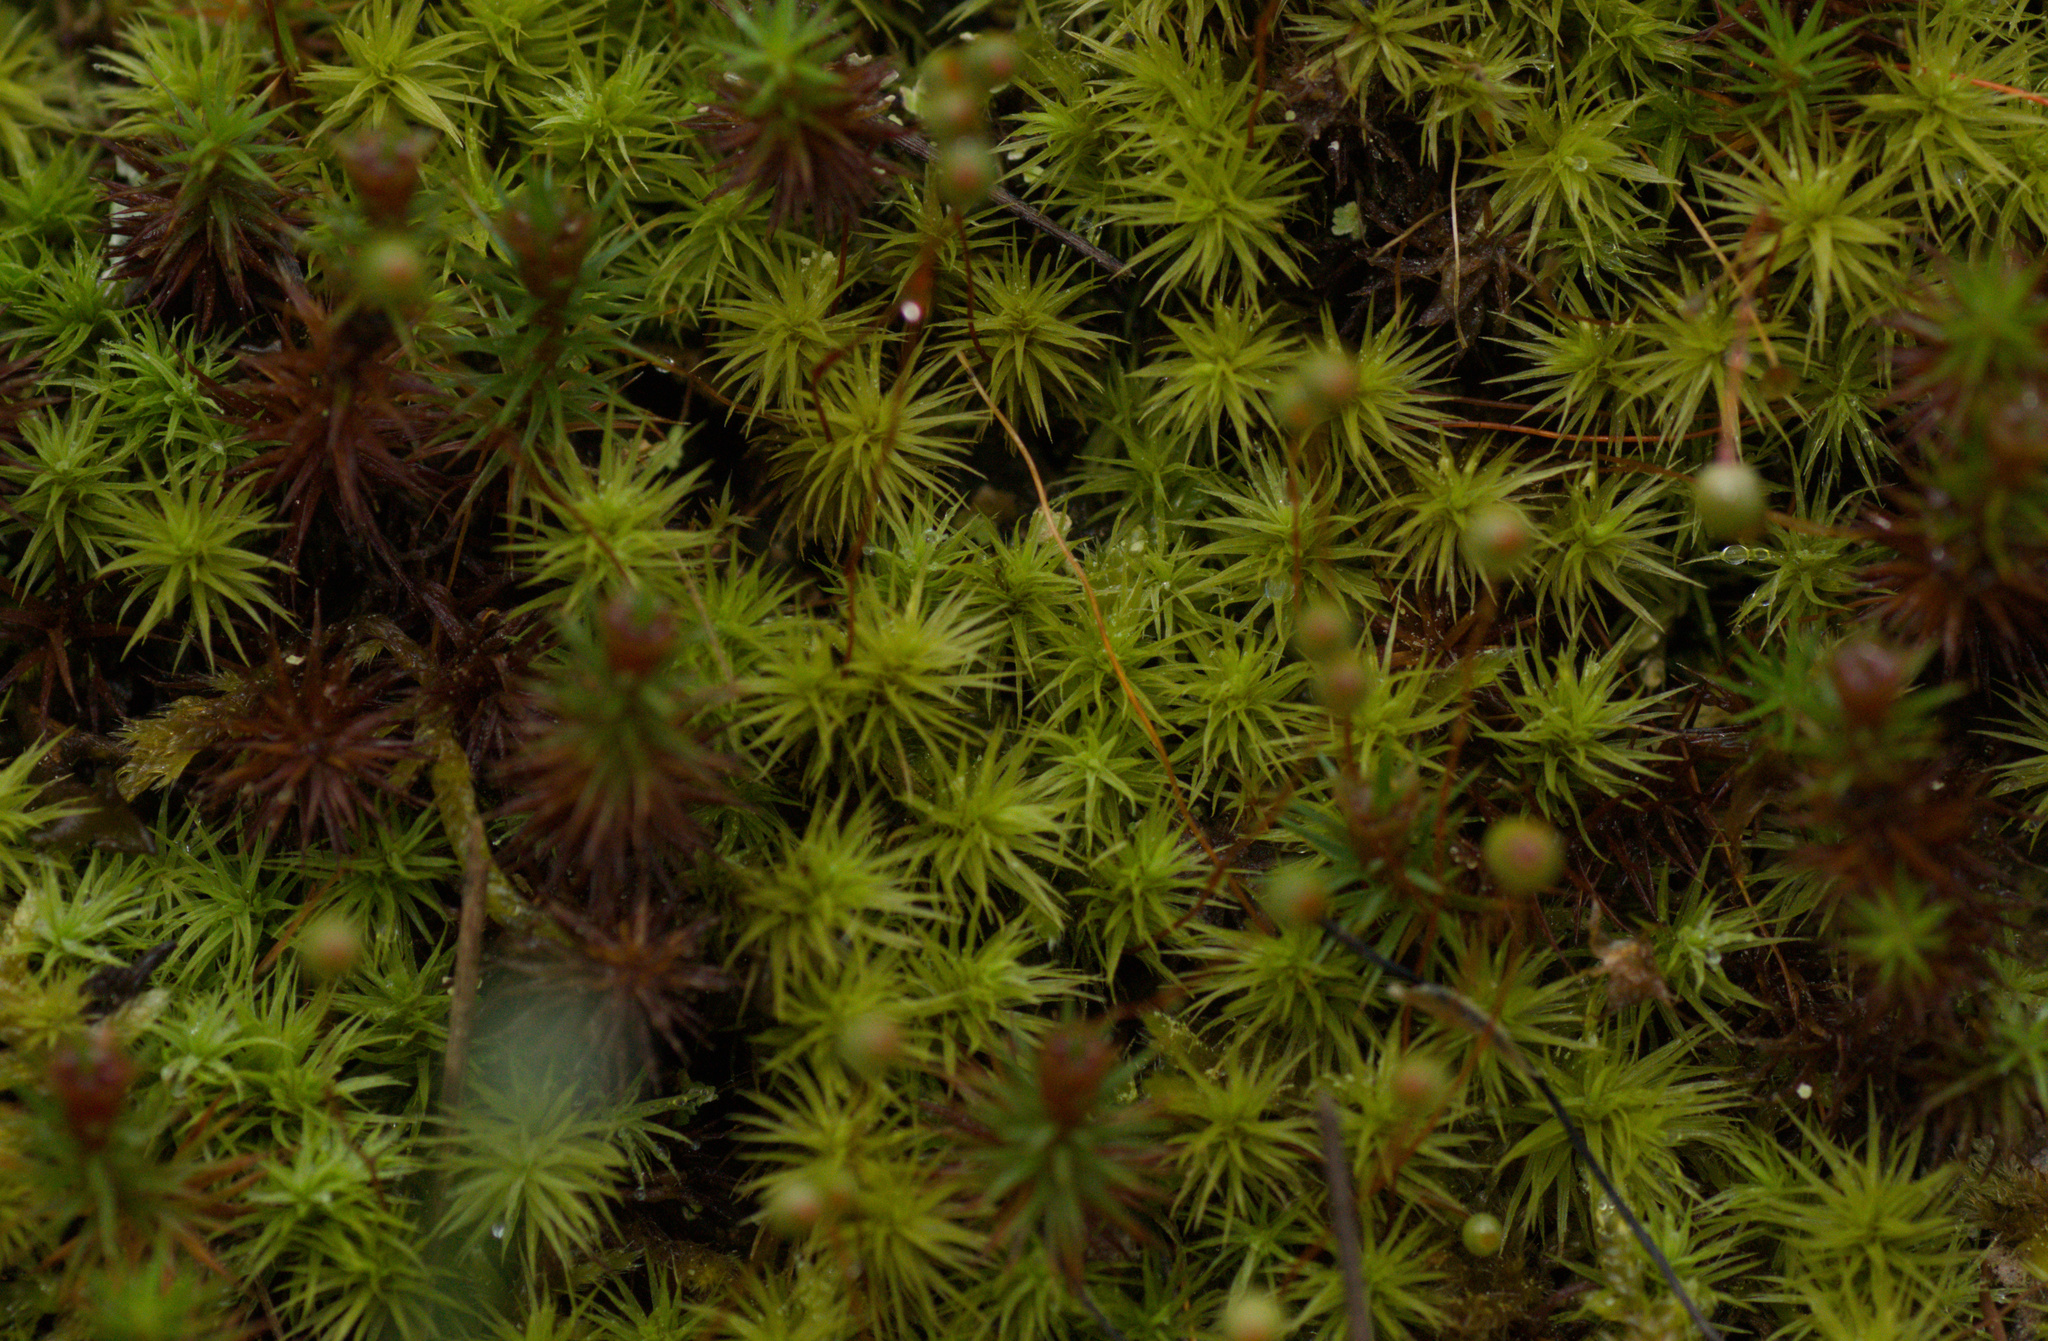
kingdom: Plantae
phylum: Bryophyta
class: Bryopsida
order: Bartramiales
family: Bartramiaceae
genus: Bartramia
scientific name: Bartramia ithyphylla
